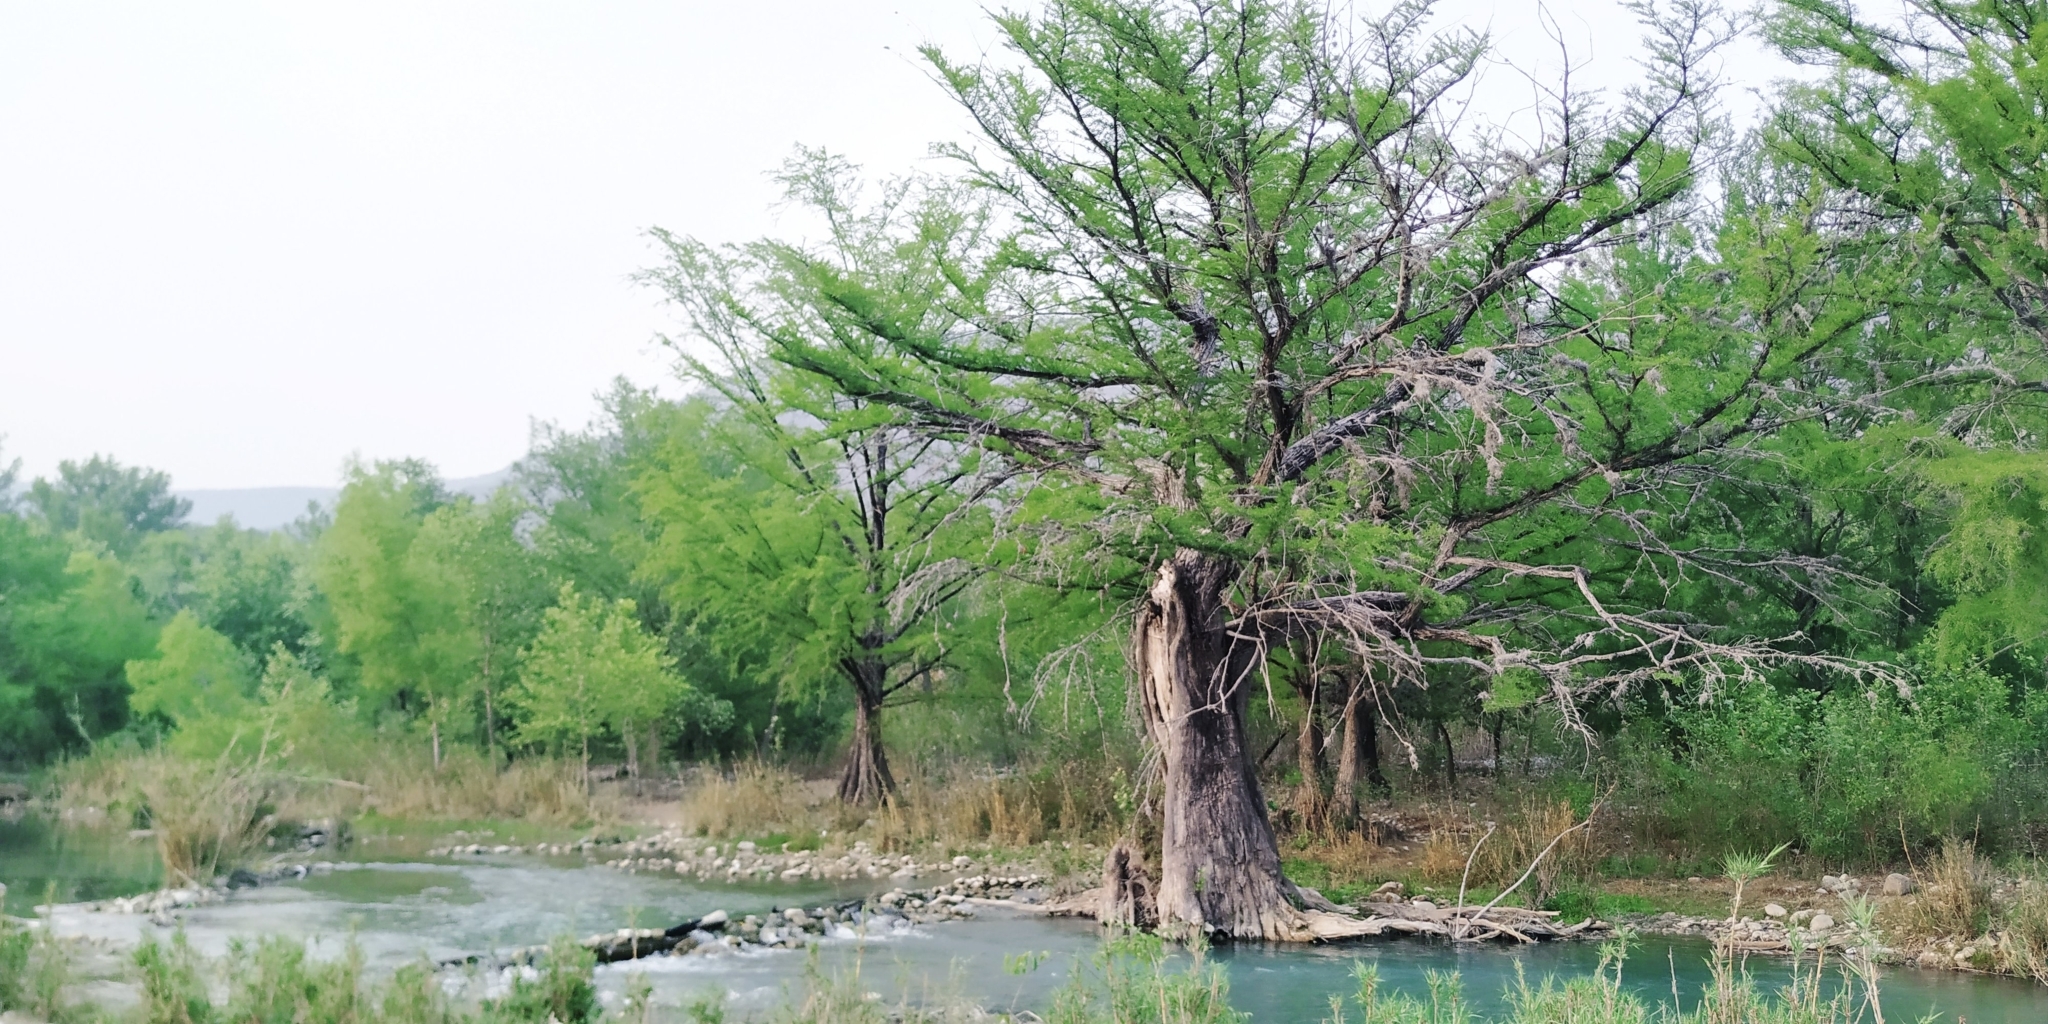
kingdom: Plantae
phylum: Tracheophyta
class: Pinopsida
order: Pinales
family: Cupressaceae
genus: Taxodium
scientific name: Taxodium mucronatum
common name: Montezume bald cypress
